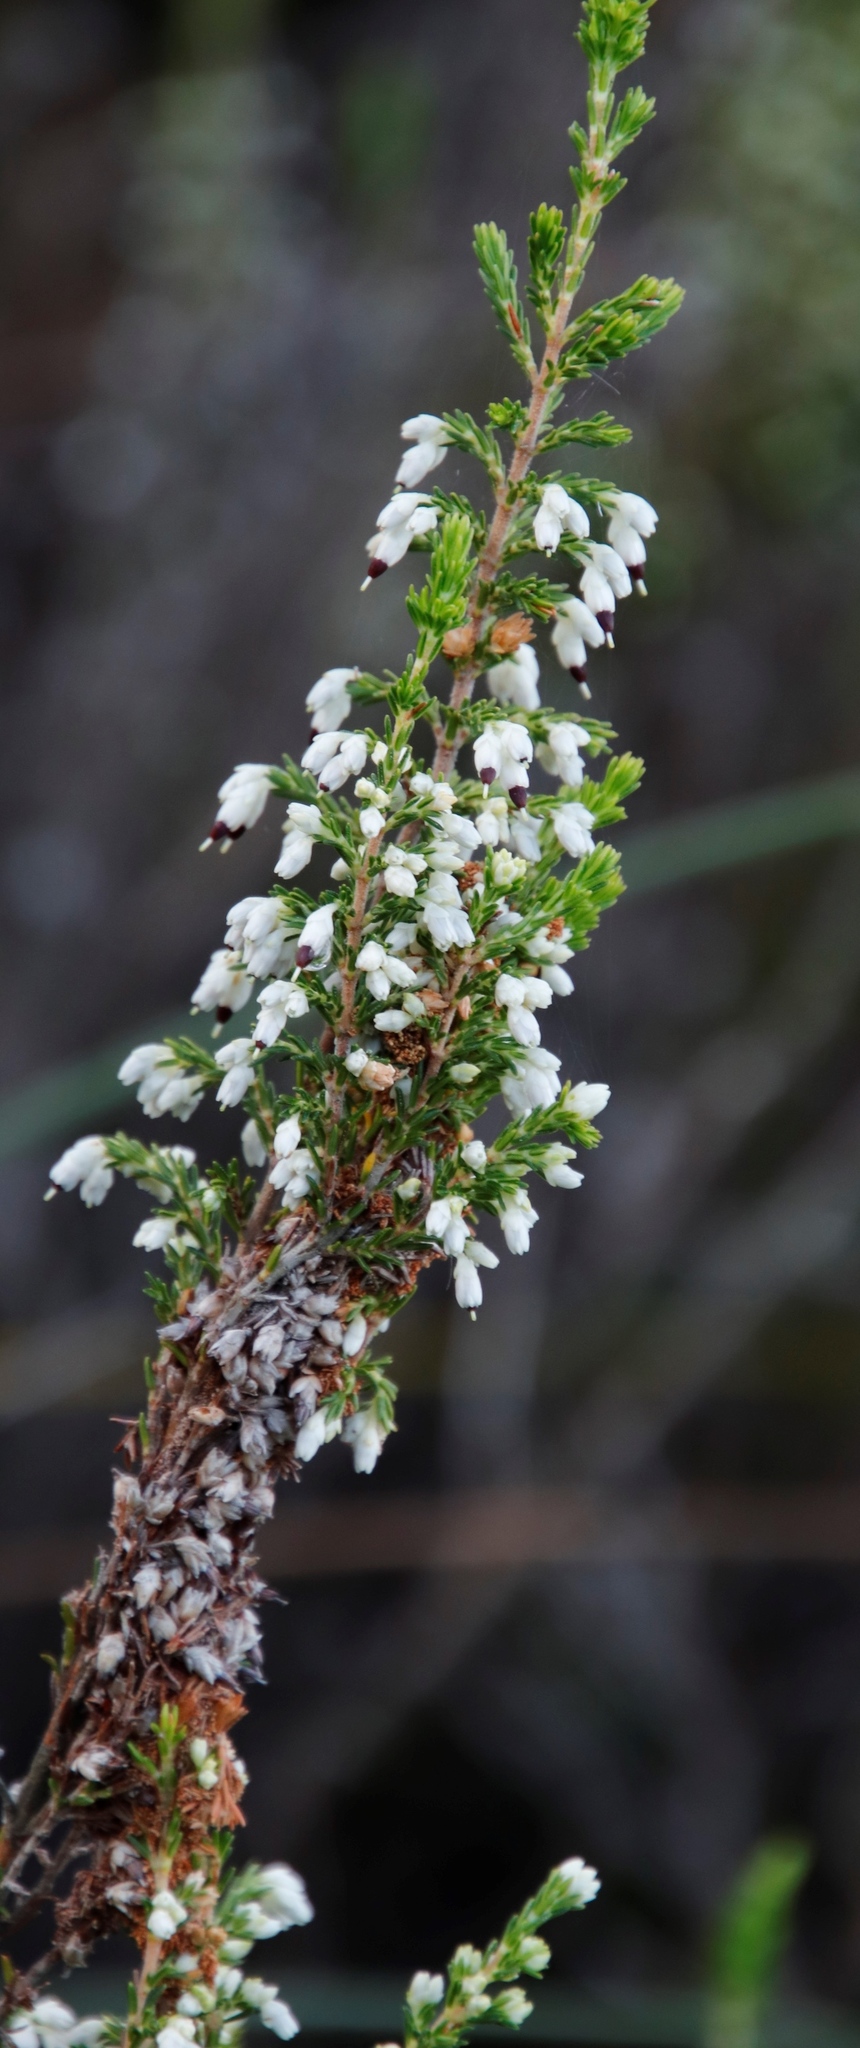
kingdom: Plantae
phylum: Tracheophyta
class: Magnoliopsida
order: Ericales
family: Ericaceae
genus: Erica
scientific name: Erica imbricata
